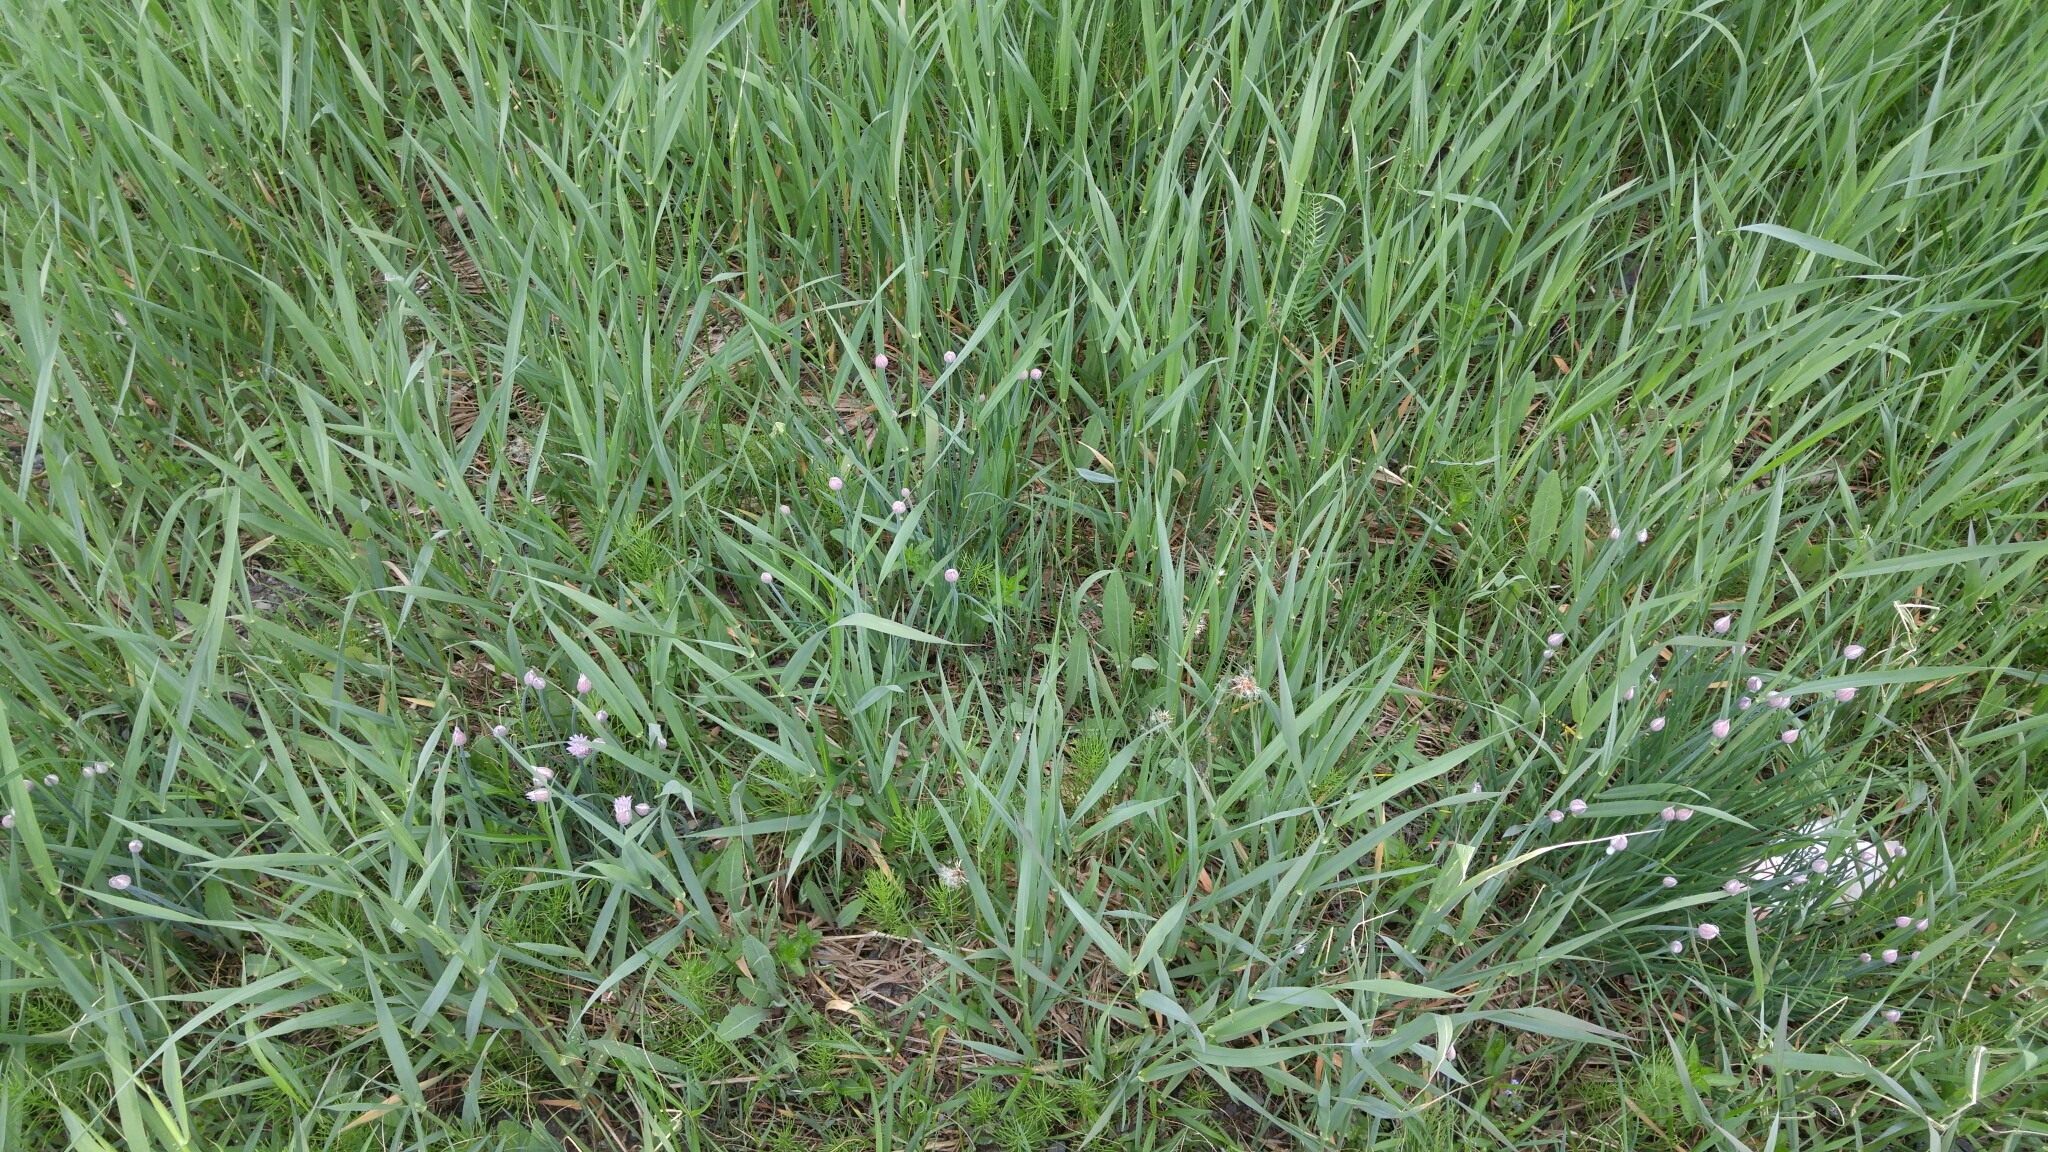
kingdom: Plantae
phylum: Tracheophyta
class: Liliopsida
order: Asparagales
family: Amaryllidaceae
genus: Allium
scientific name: Allium schoenoprasum
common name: Chives
